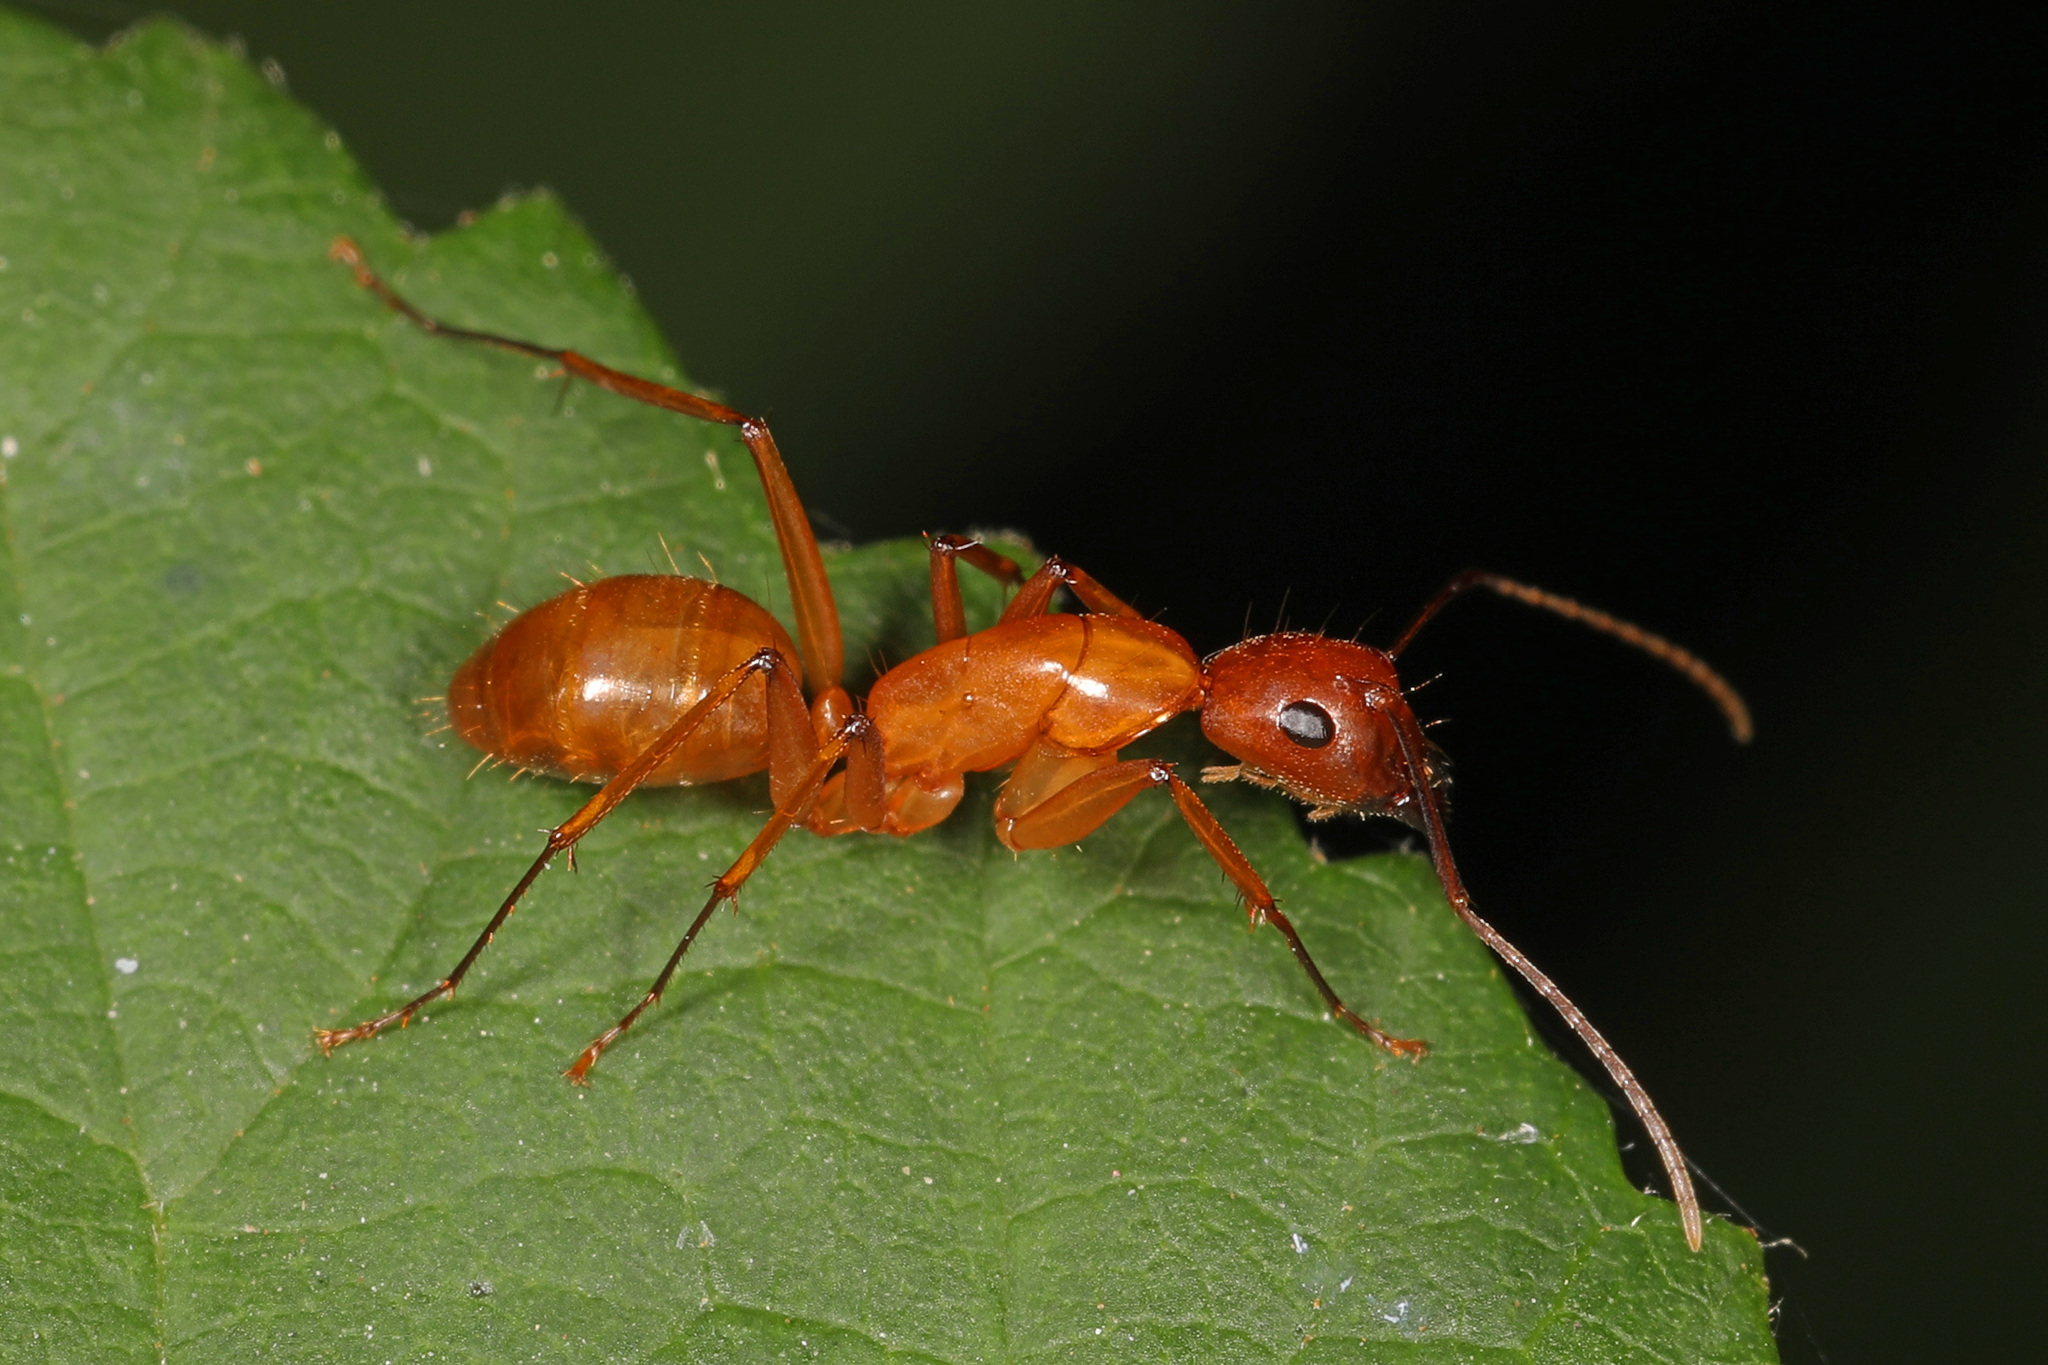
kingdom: Animalia
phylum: Arthropoda
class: Insecta
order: Hymenoptera
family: Formicidae
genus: Camponotus
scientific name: Camponotus castaneus
